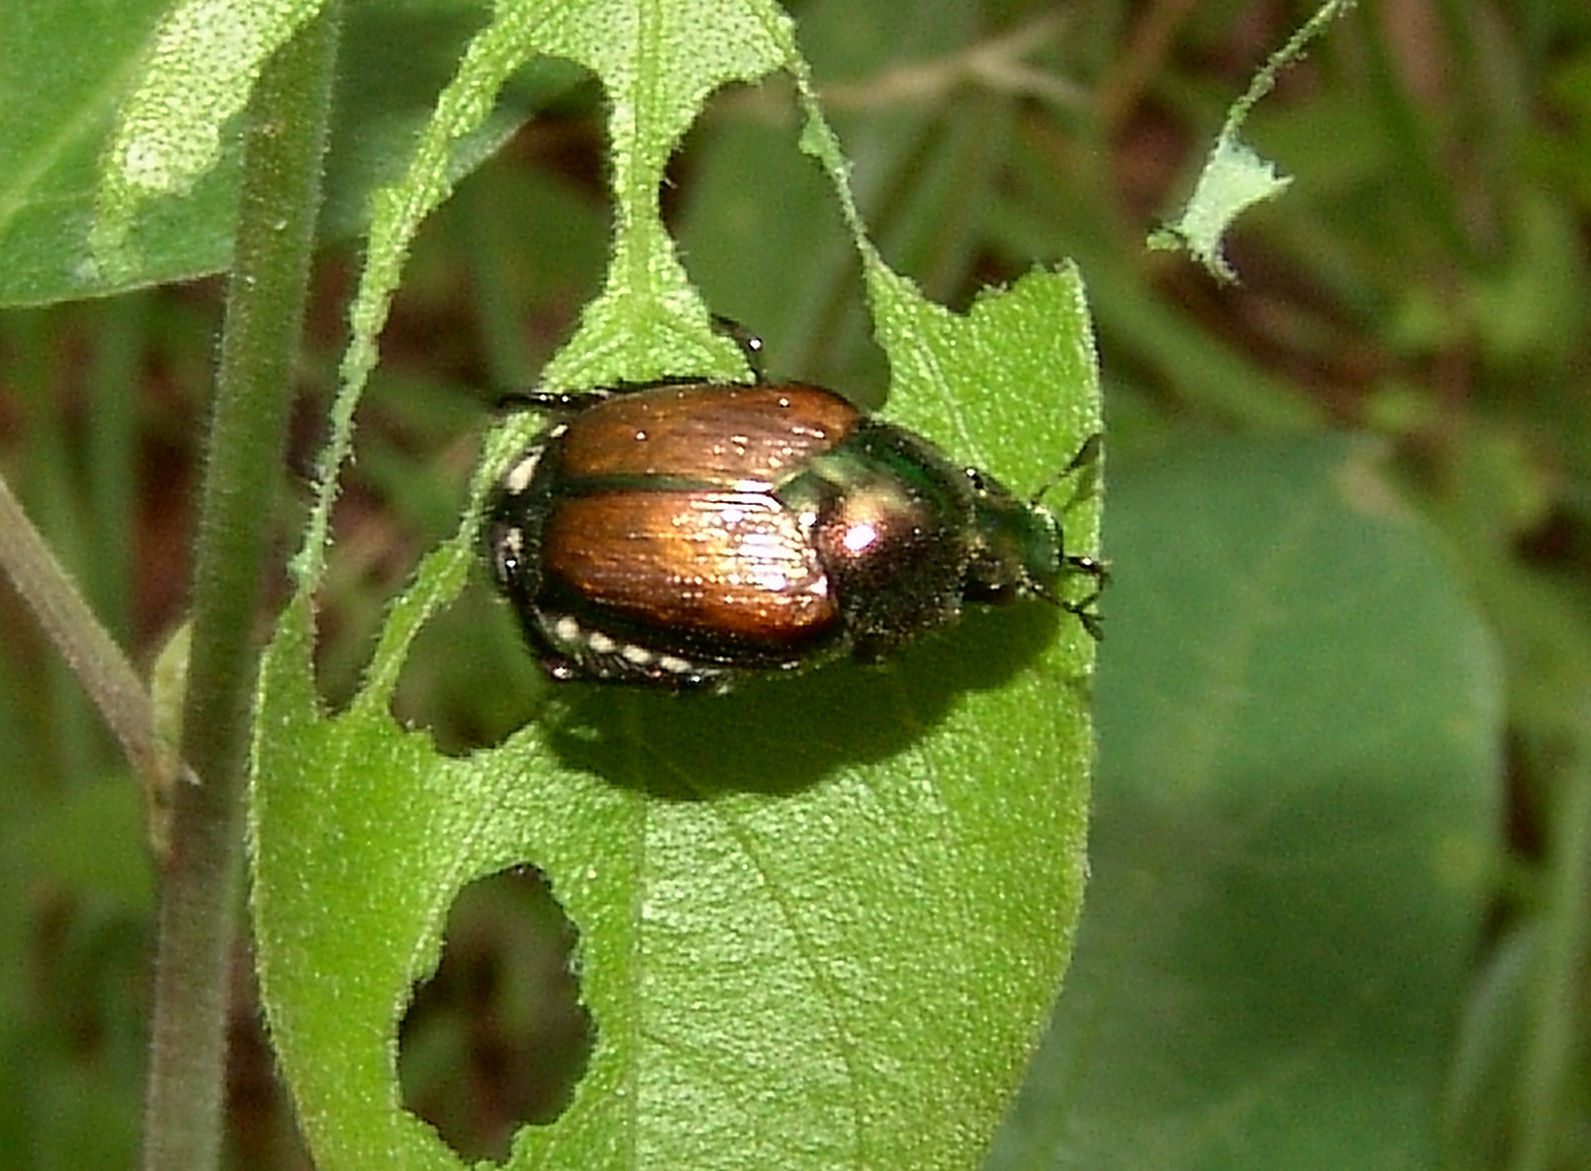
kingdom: Animalia
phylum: Arthropoda
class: Insecta
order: Coleoptera
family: Scarabaeidae
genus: Popillia
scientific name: Popillia japonica
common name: Japanese beetle
